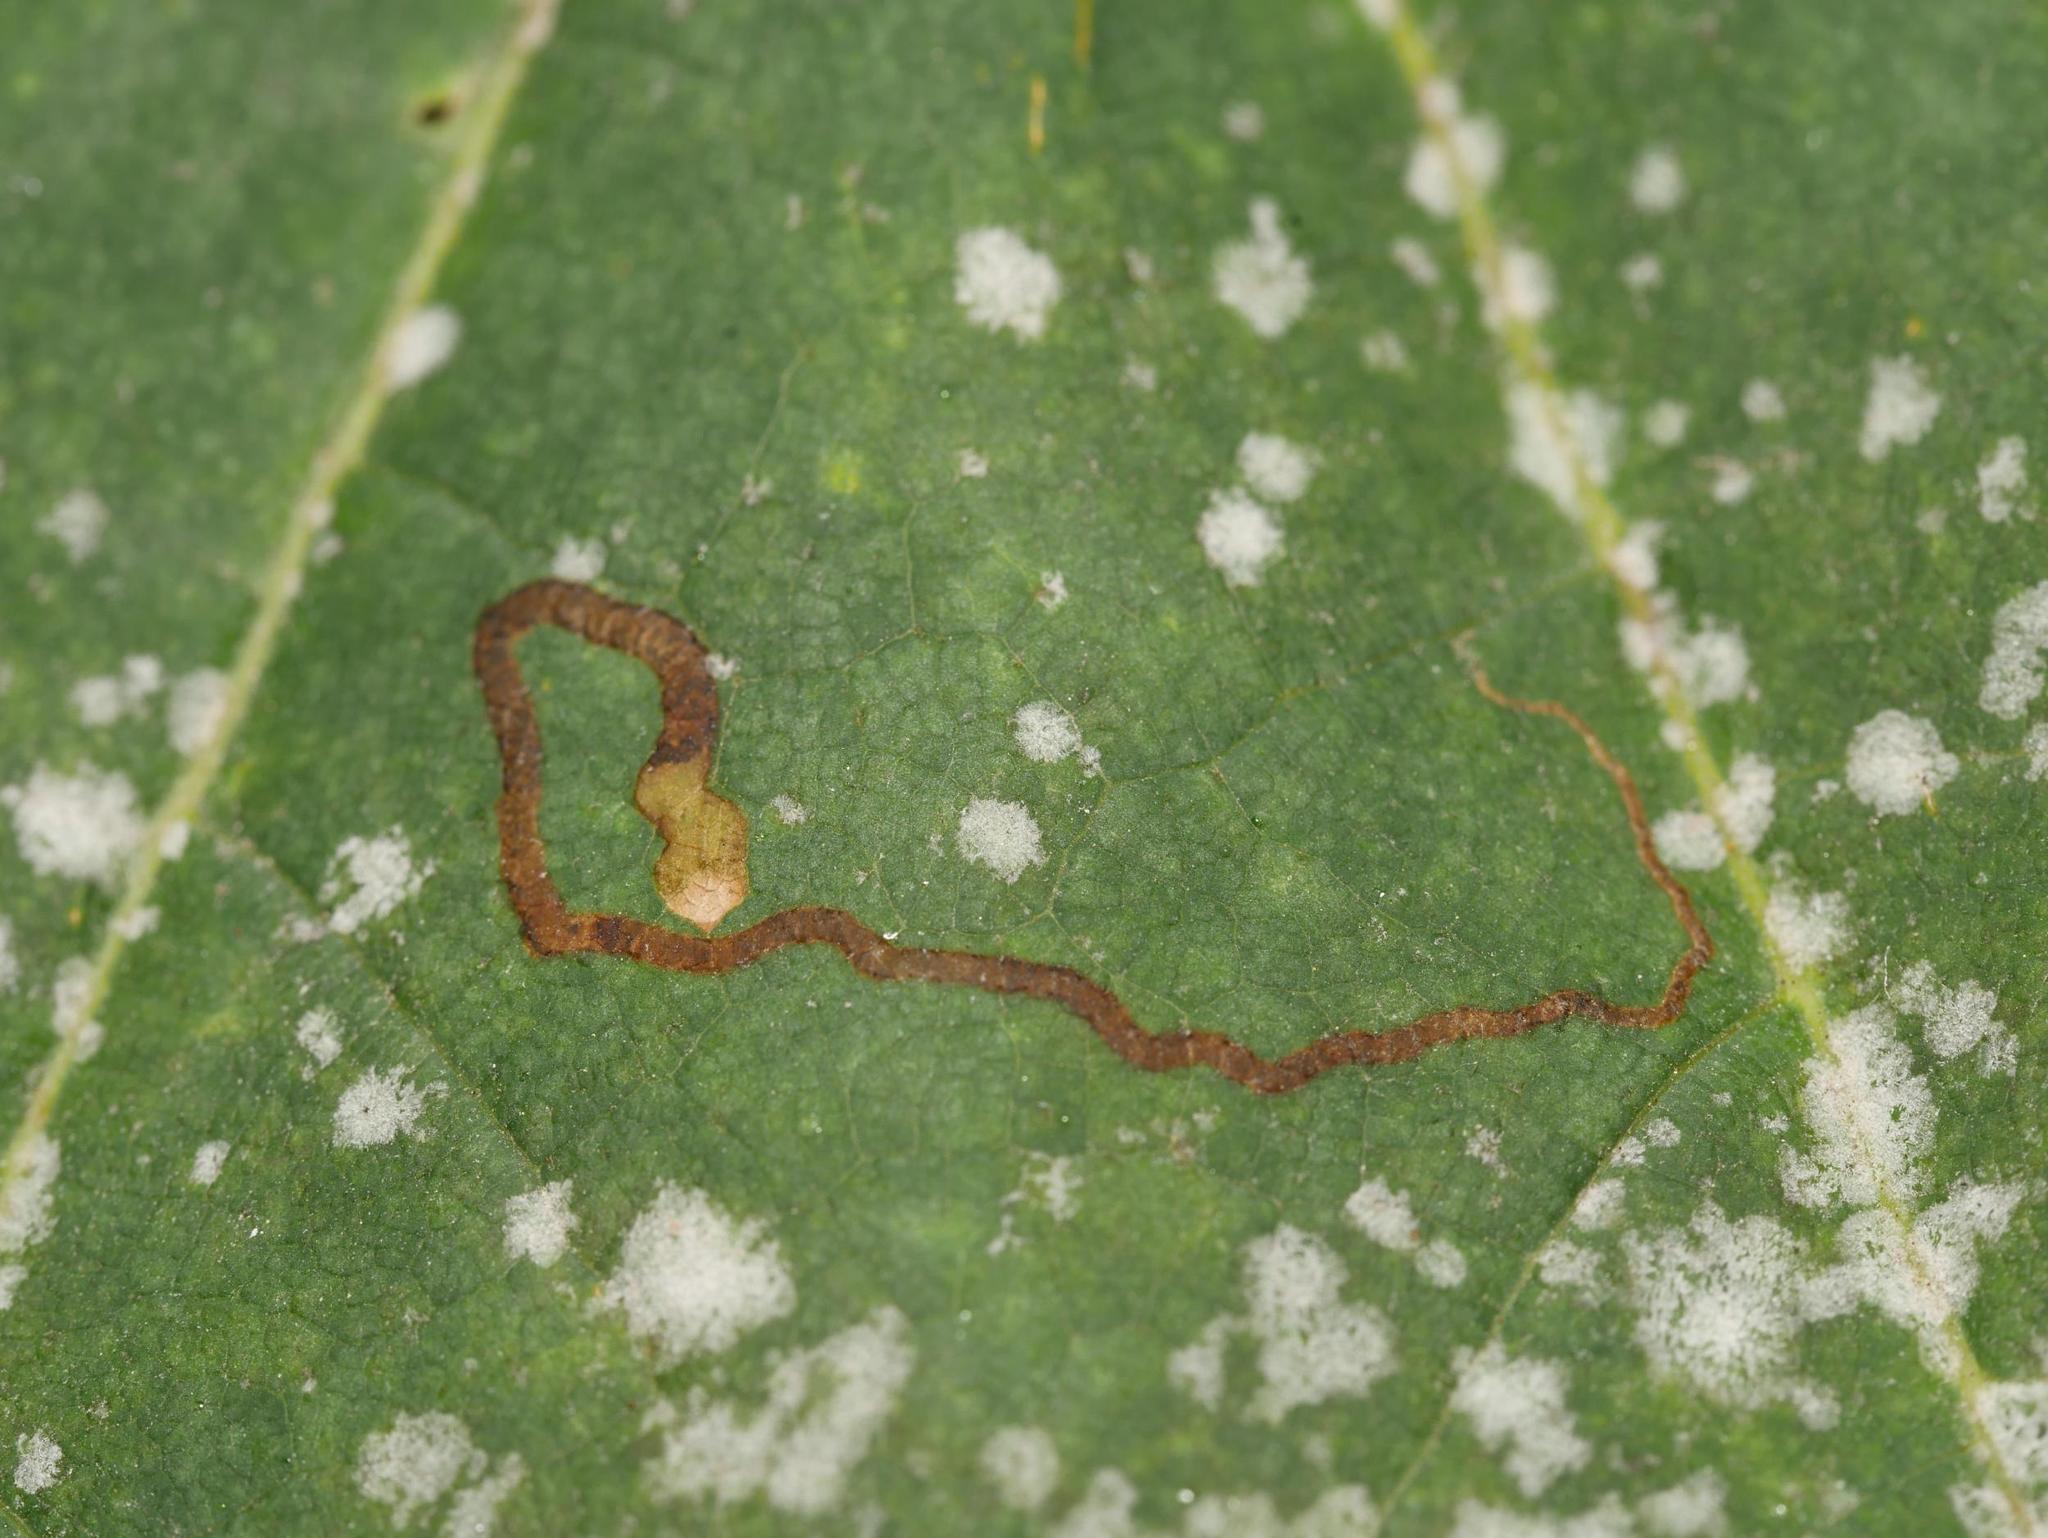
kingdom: Fungi
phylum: Ascomycota
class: Leotiomycetes
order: Helotiales
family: Erysiphaceae
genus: Sawadaea
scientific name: Sawadaea tulasnei
